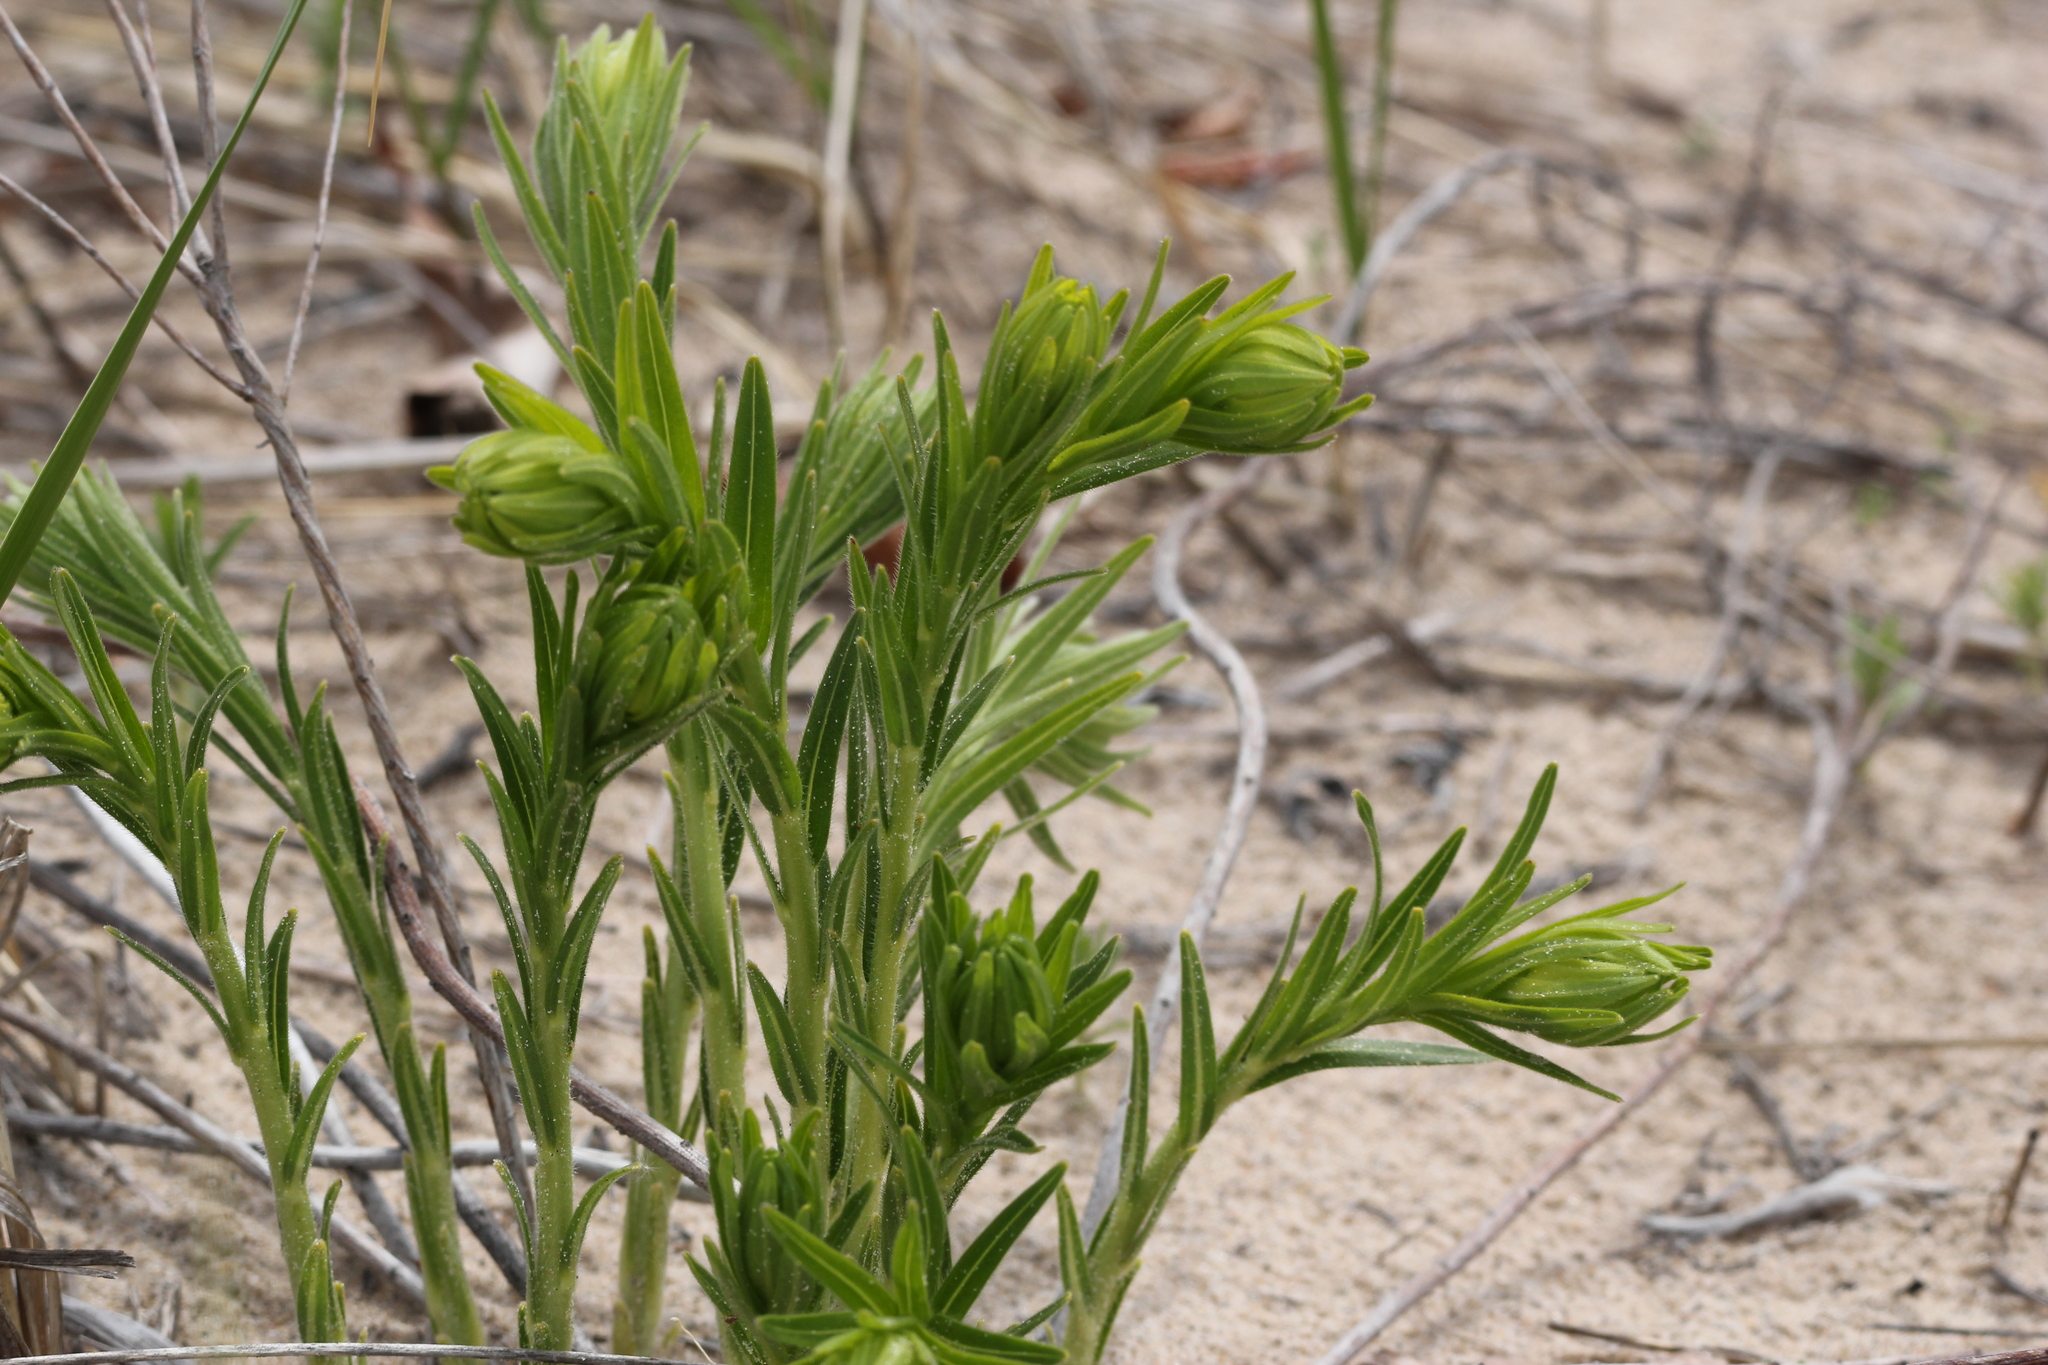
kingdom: Plantae
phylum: Tracheophyta
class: Magnoliopsida
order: Boraginales
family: Boraginaceae
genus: Lithospermum
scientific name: Lithospermum caroliniense
